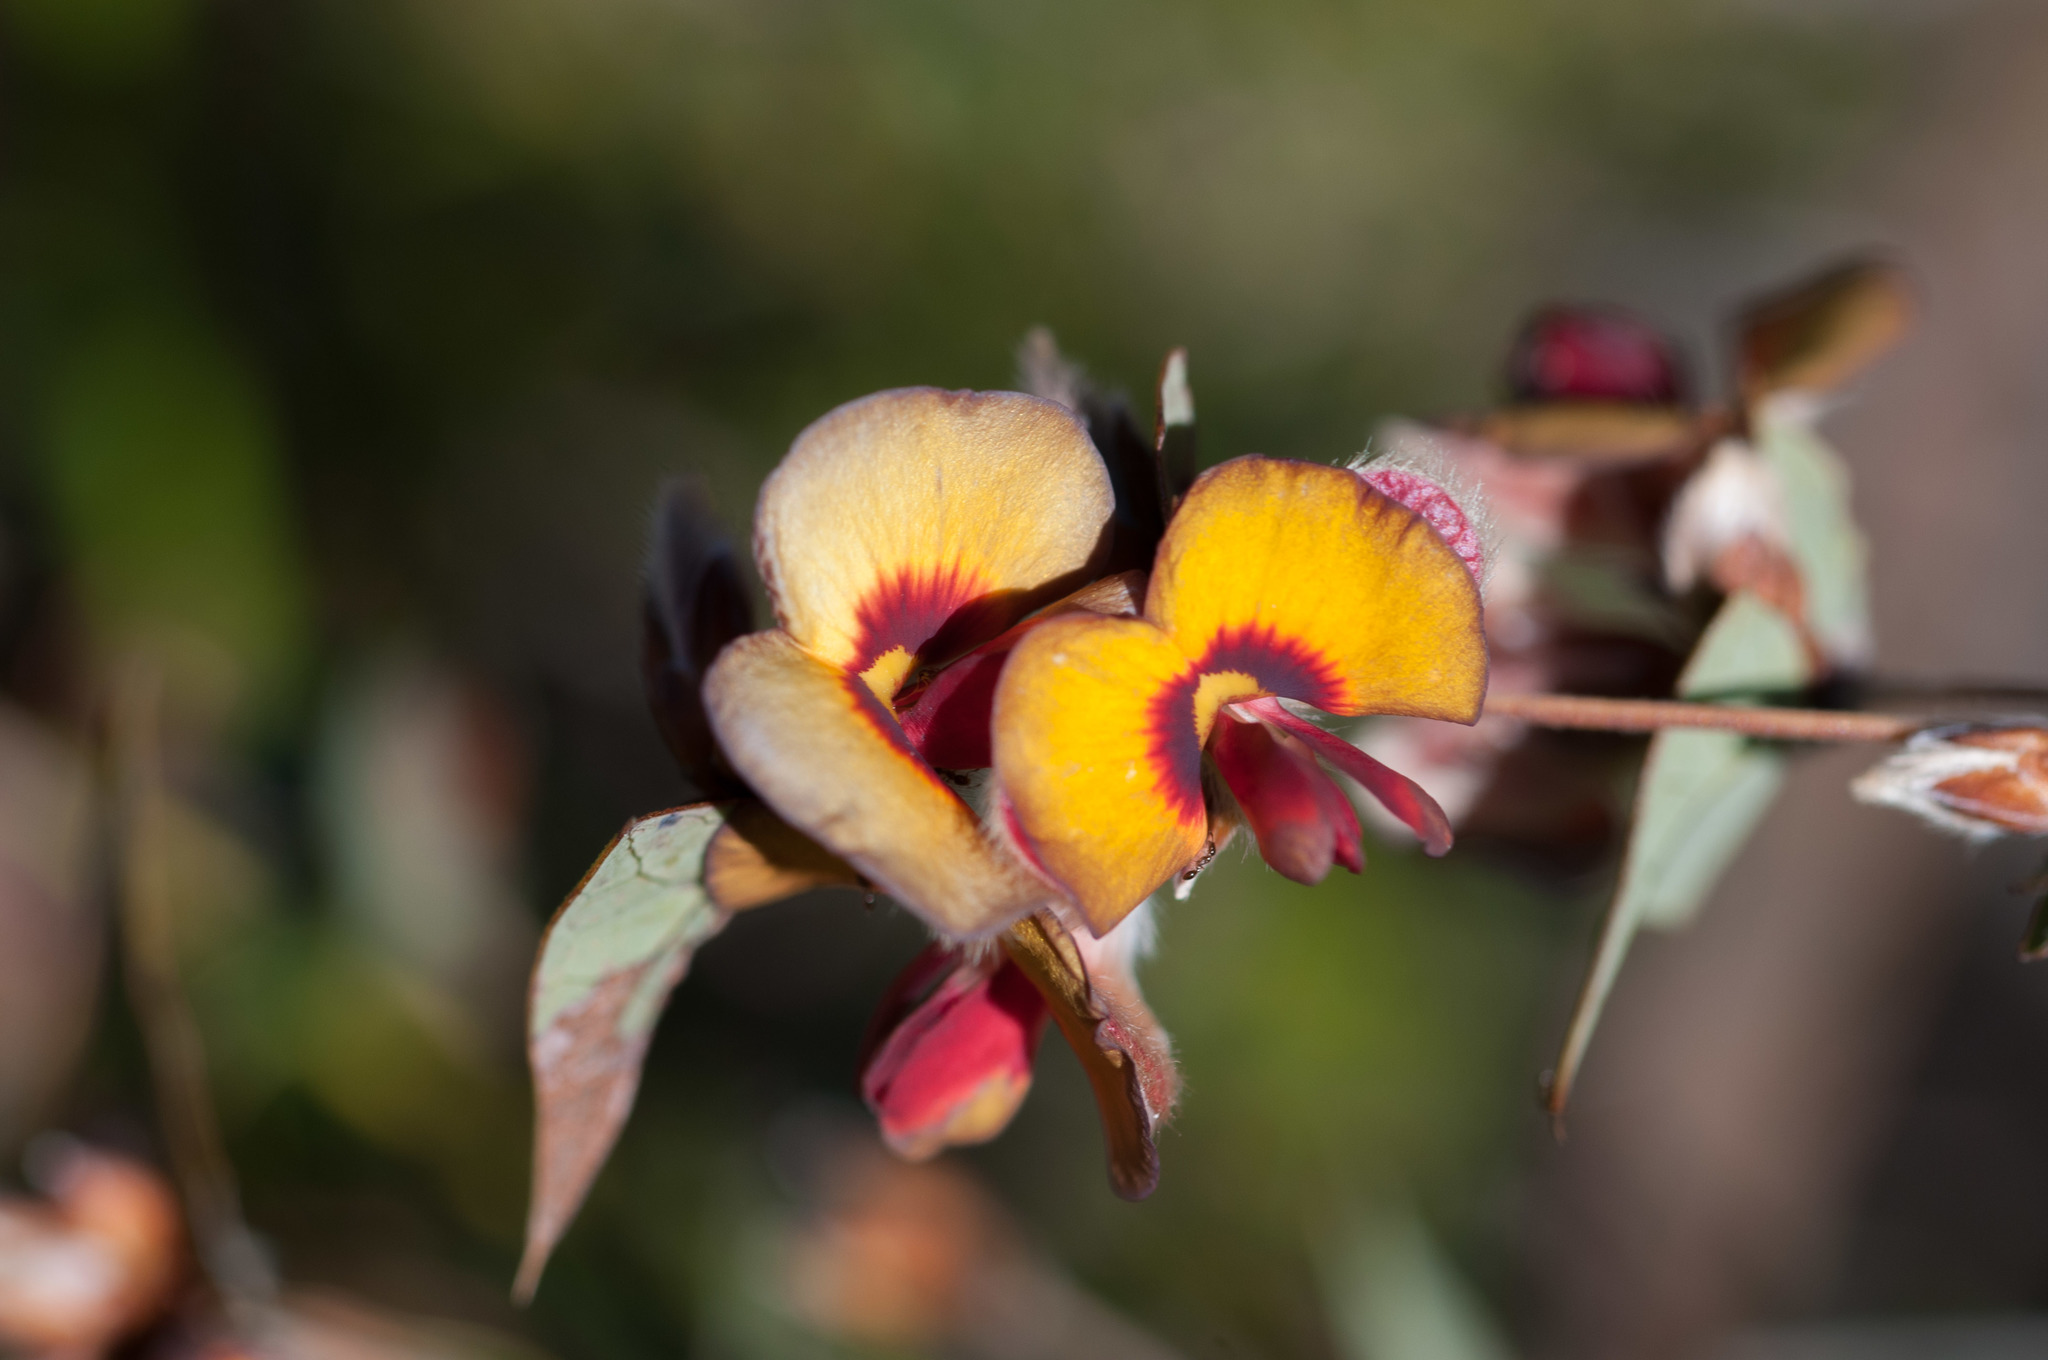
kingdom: Plantae
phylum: Tracheophyta
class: Magnoliopsida
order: Fabales
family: Fabaceae
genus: Daviesia
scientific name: Daviesia ulicifolia
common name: Gorse bitter-pea
